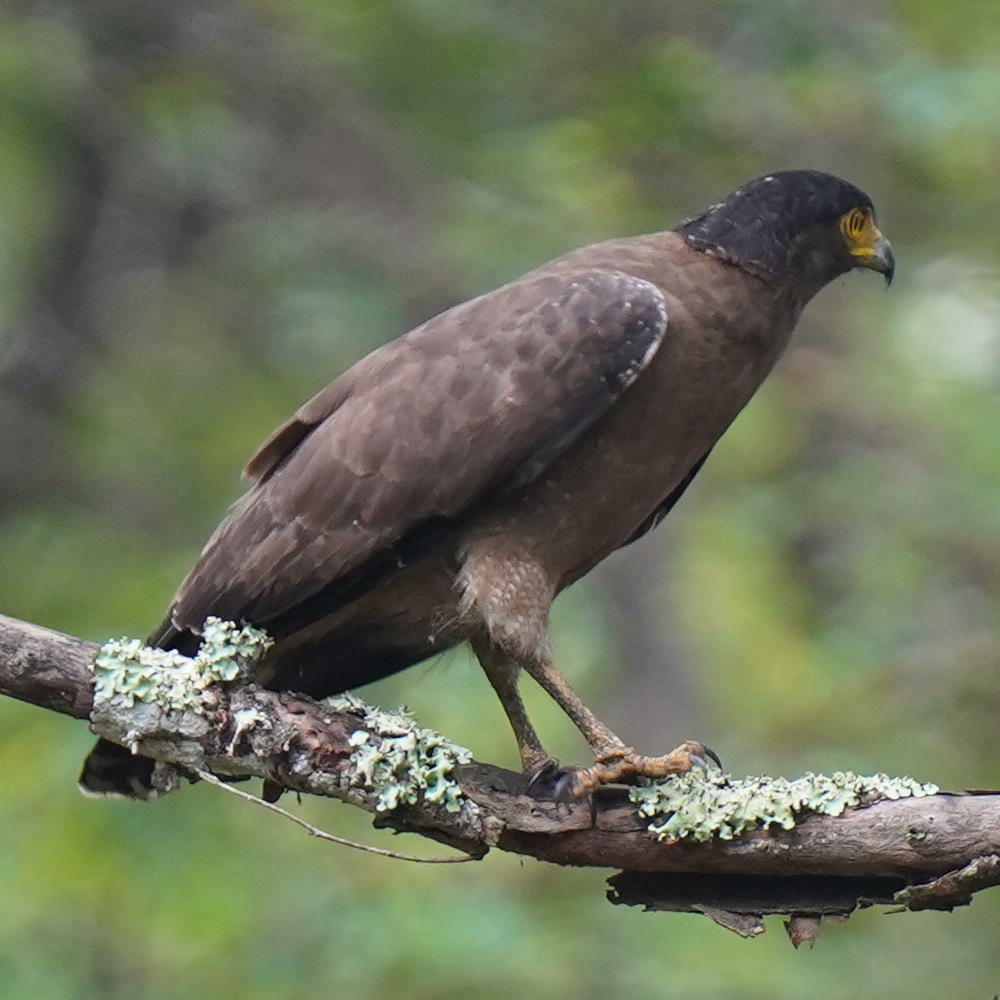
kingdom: Animalia
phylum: Chordata
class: Aves
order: Accipitriformes
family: Accipitridae
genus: Spilornis
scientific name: Spilornis cheela
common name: Crested serpent eagle
